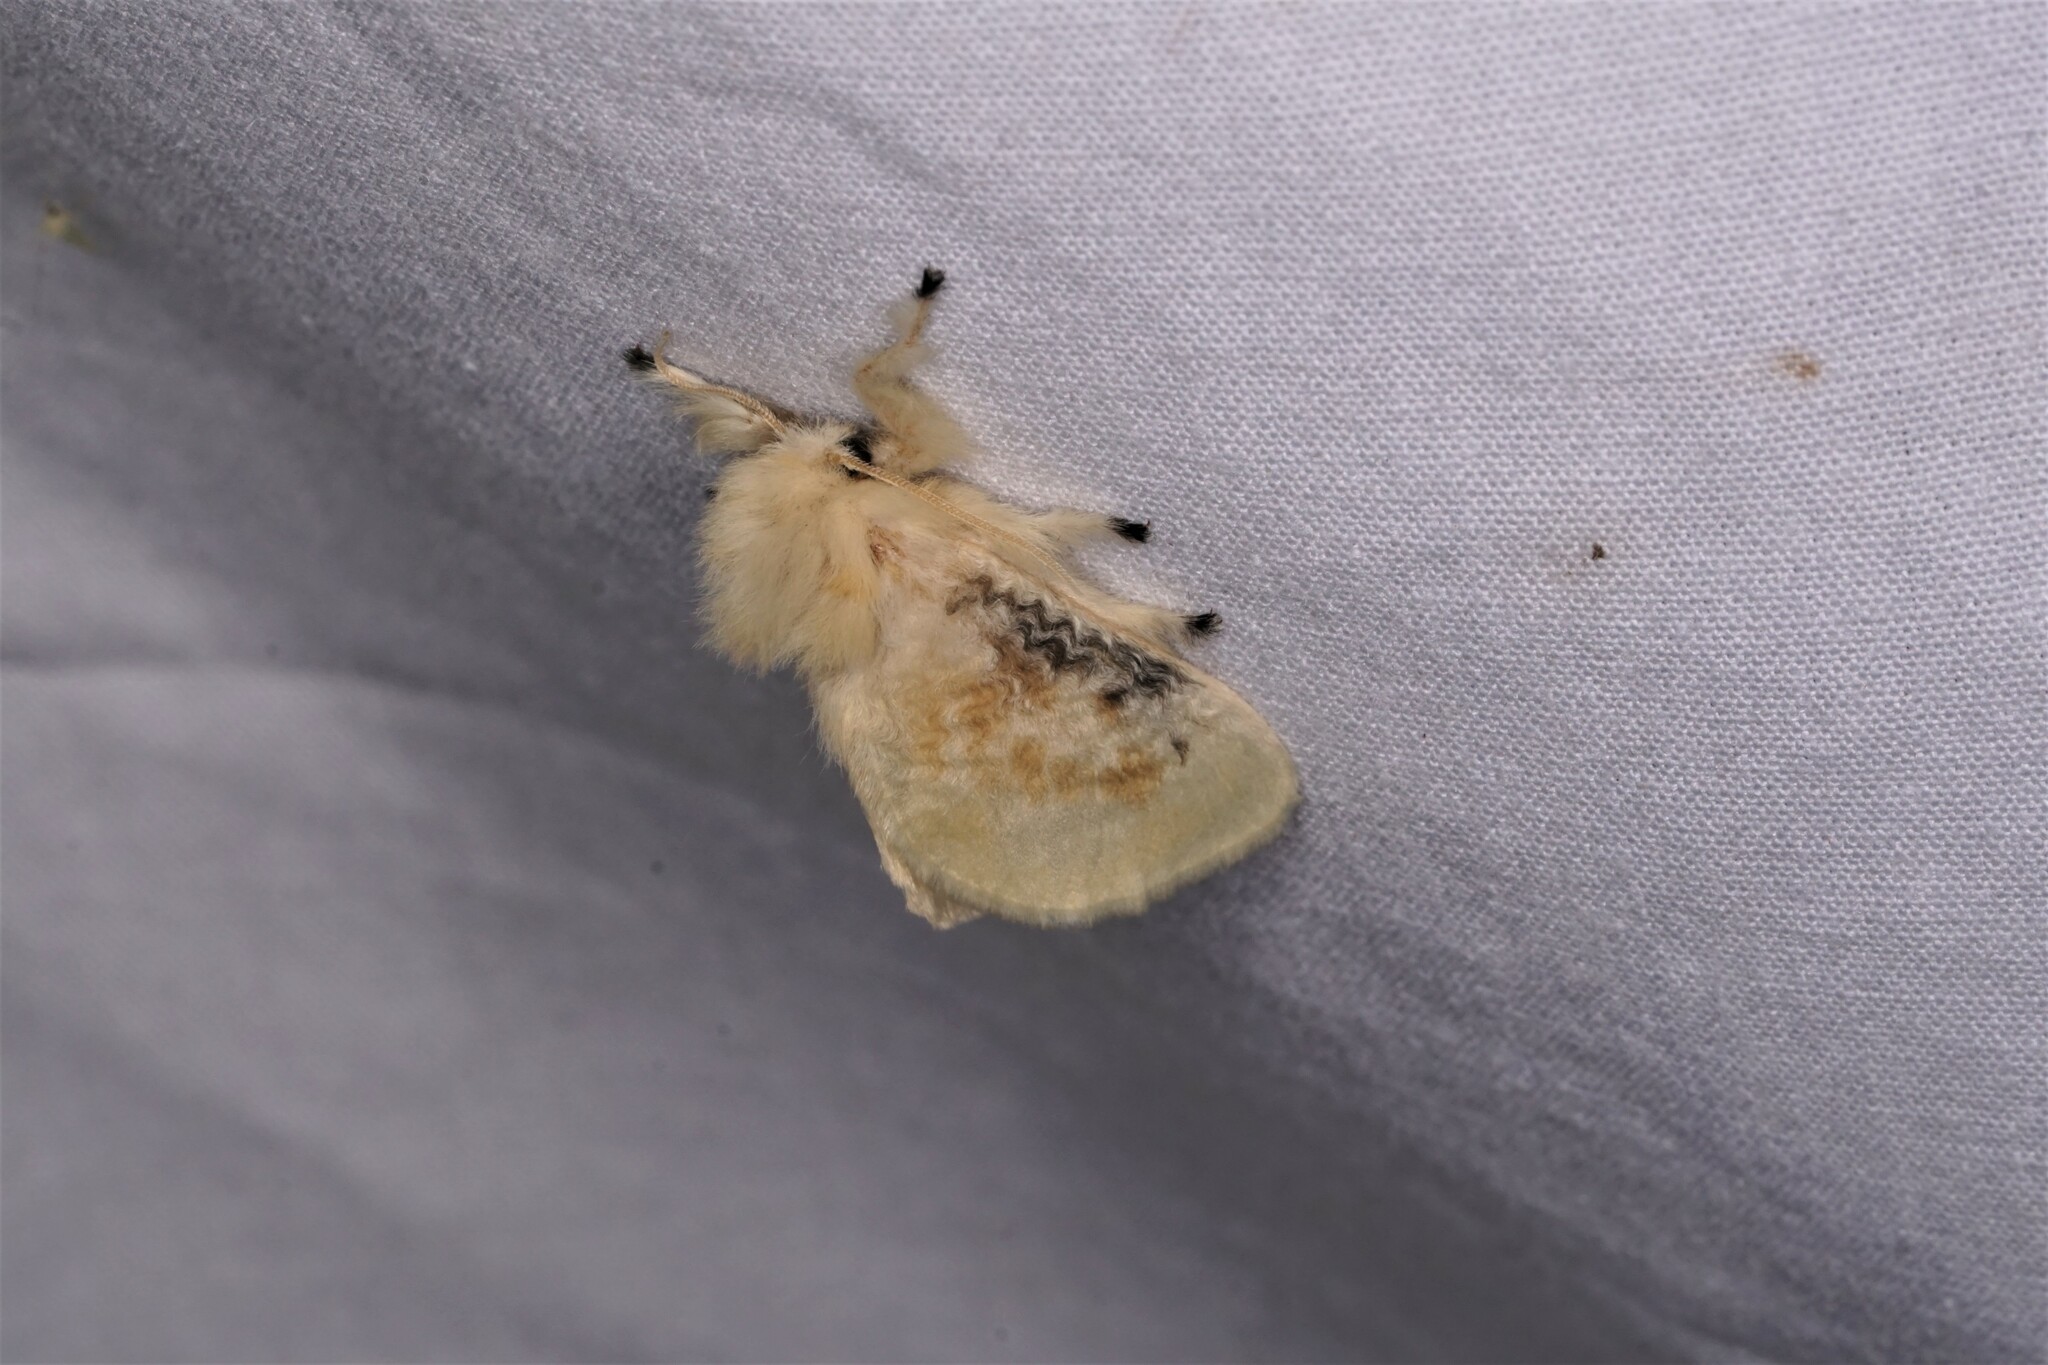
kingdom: Animalia
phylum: Arthropoda
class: Insecta
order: Lepidoptera
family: Megalopygidae
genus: Megalopyge
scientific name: Megalopyge crispata
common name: Black-waved flannel moth
